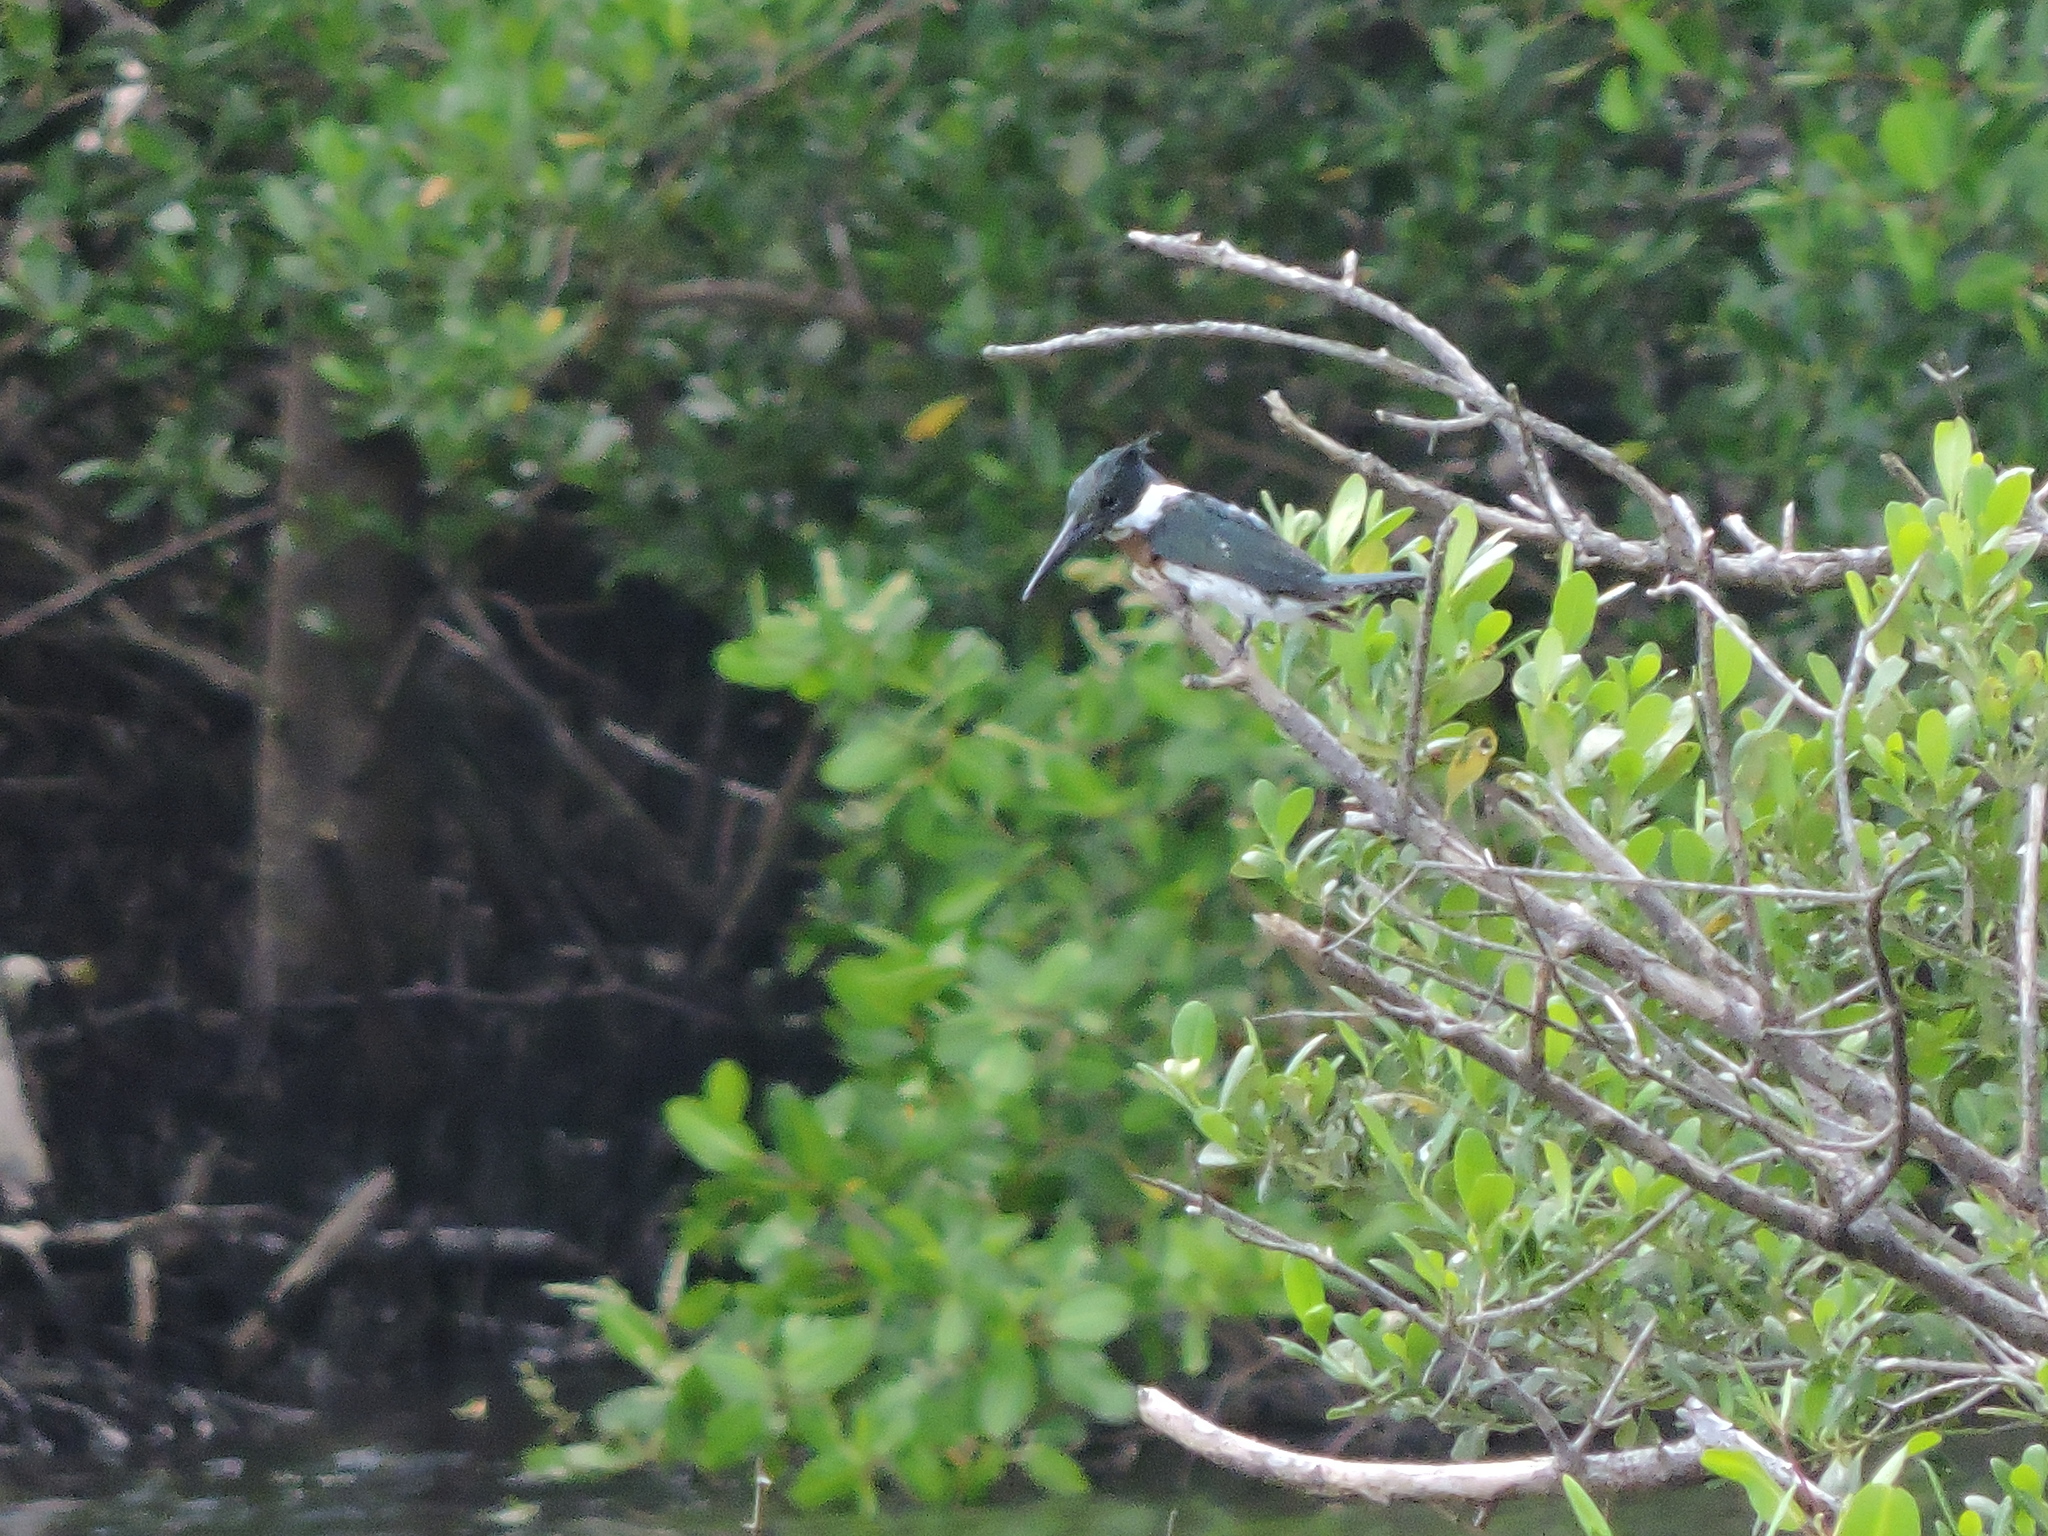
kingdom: Animalia
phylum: Chordata
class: Aves
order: Coraciiformes
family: Alcedinidae
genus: Chloroceryle
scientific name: Chloroceryle amazona
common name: Amazon kingfisher
